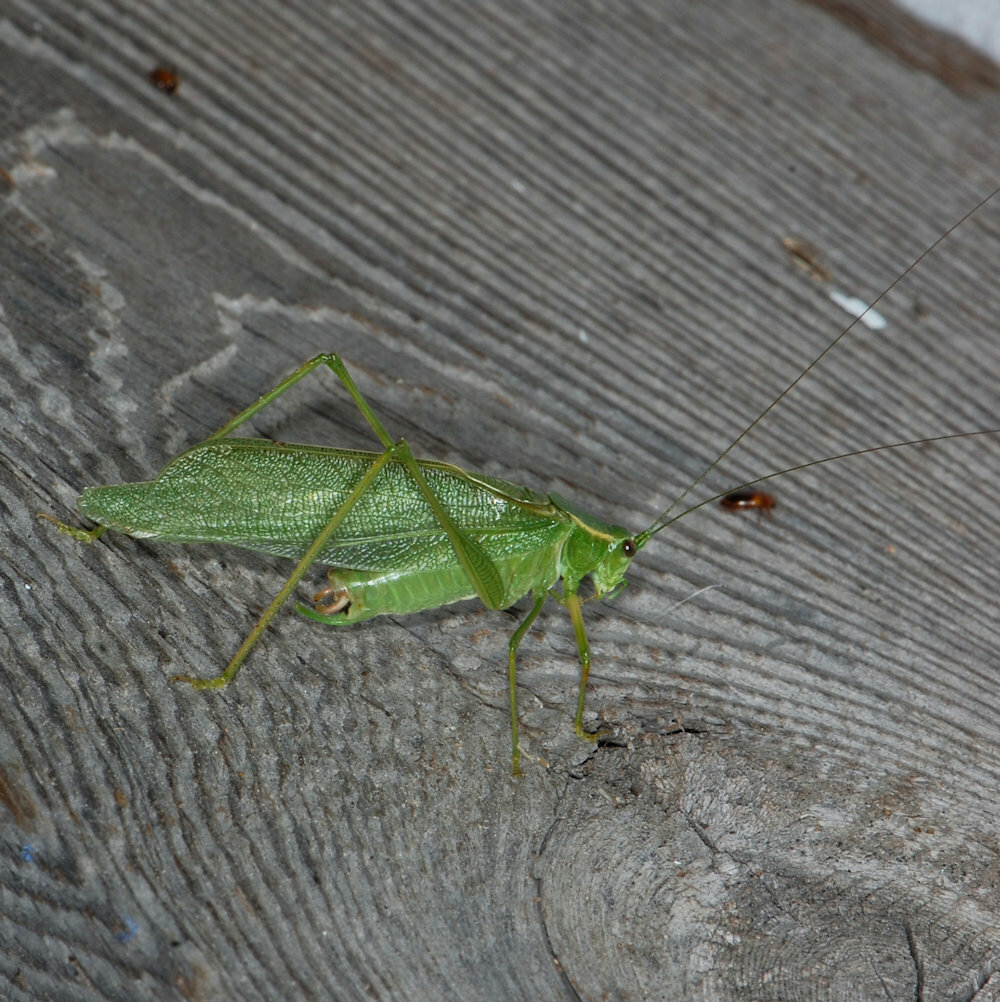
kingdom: Animalia
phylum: Arthropoda
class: Insecta
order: Orthoptera
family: Tettigoniidae
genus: Scudderia
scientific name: Scudderia septentrionalis
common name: Northern bush-katydid
